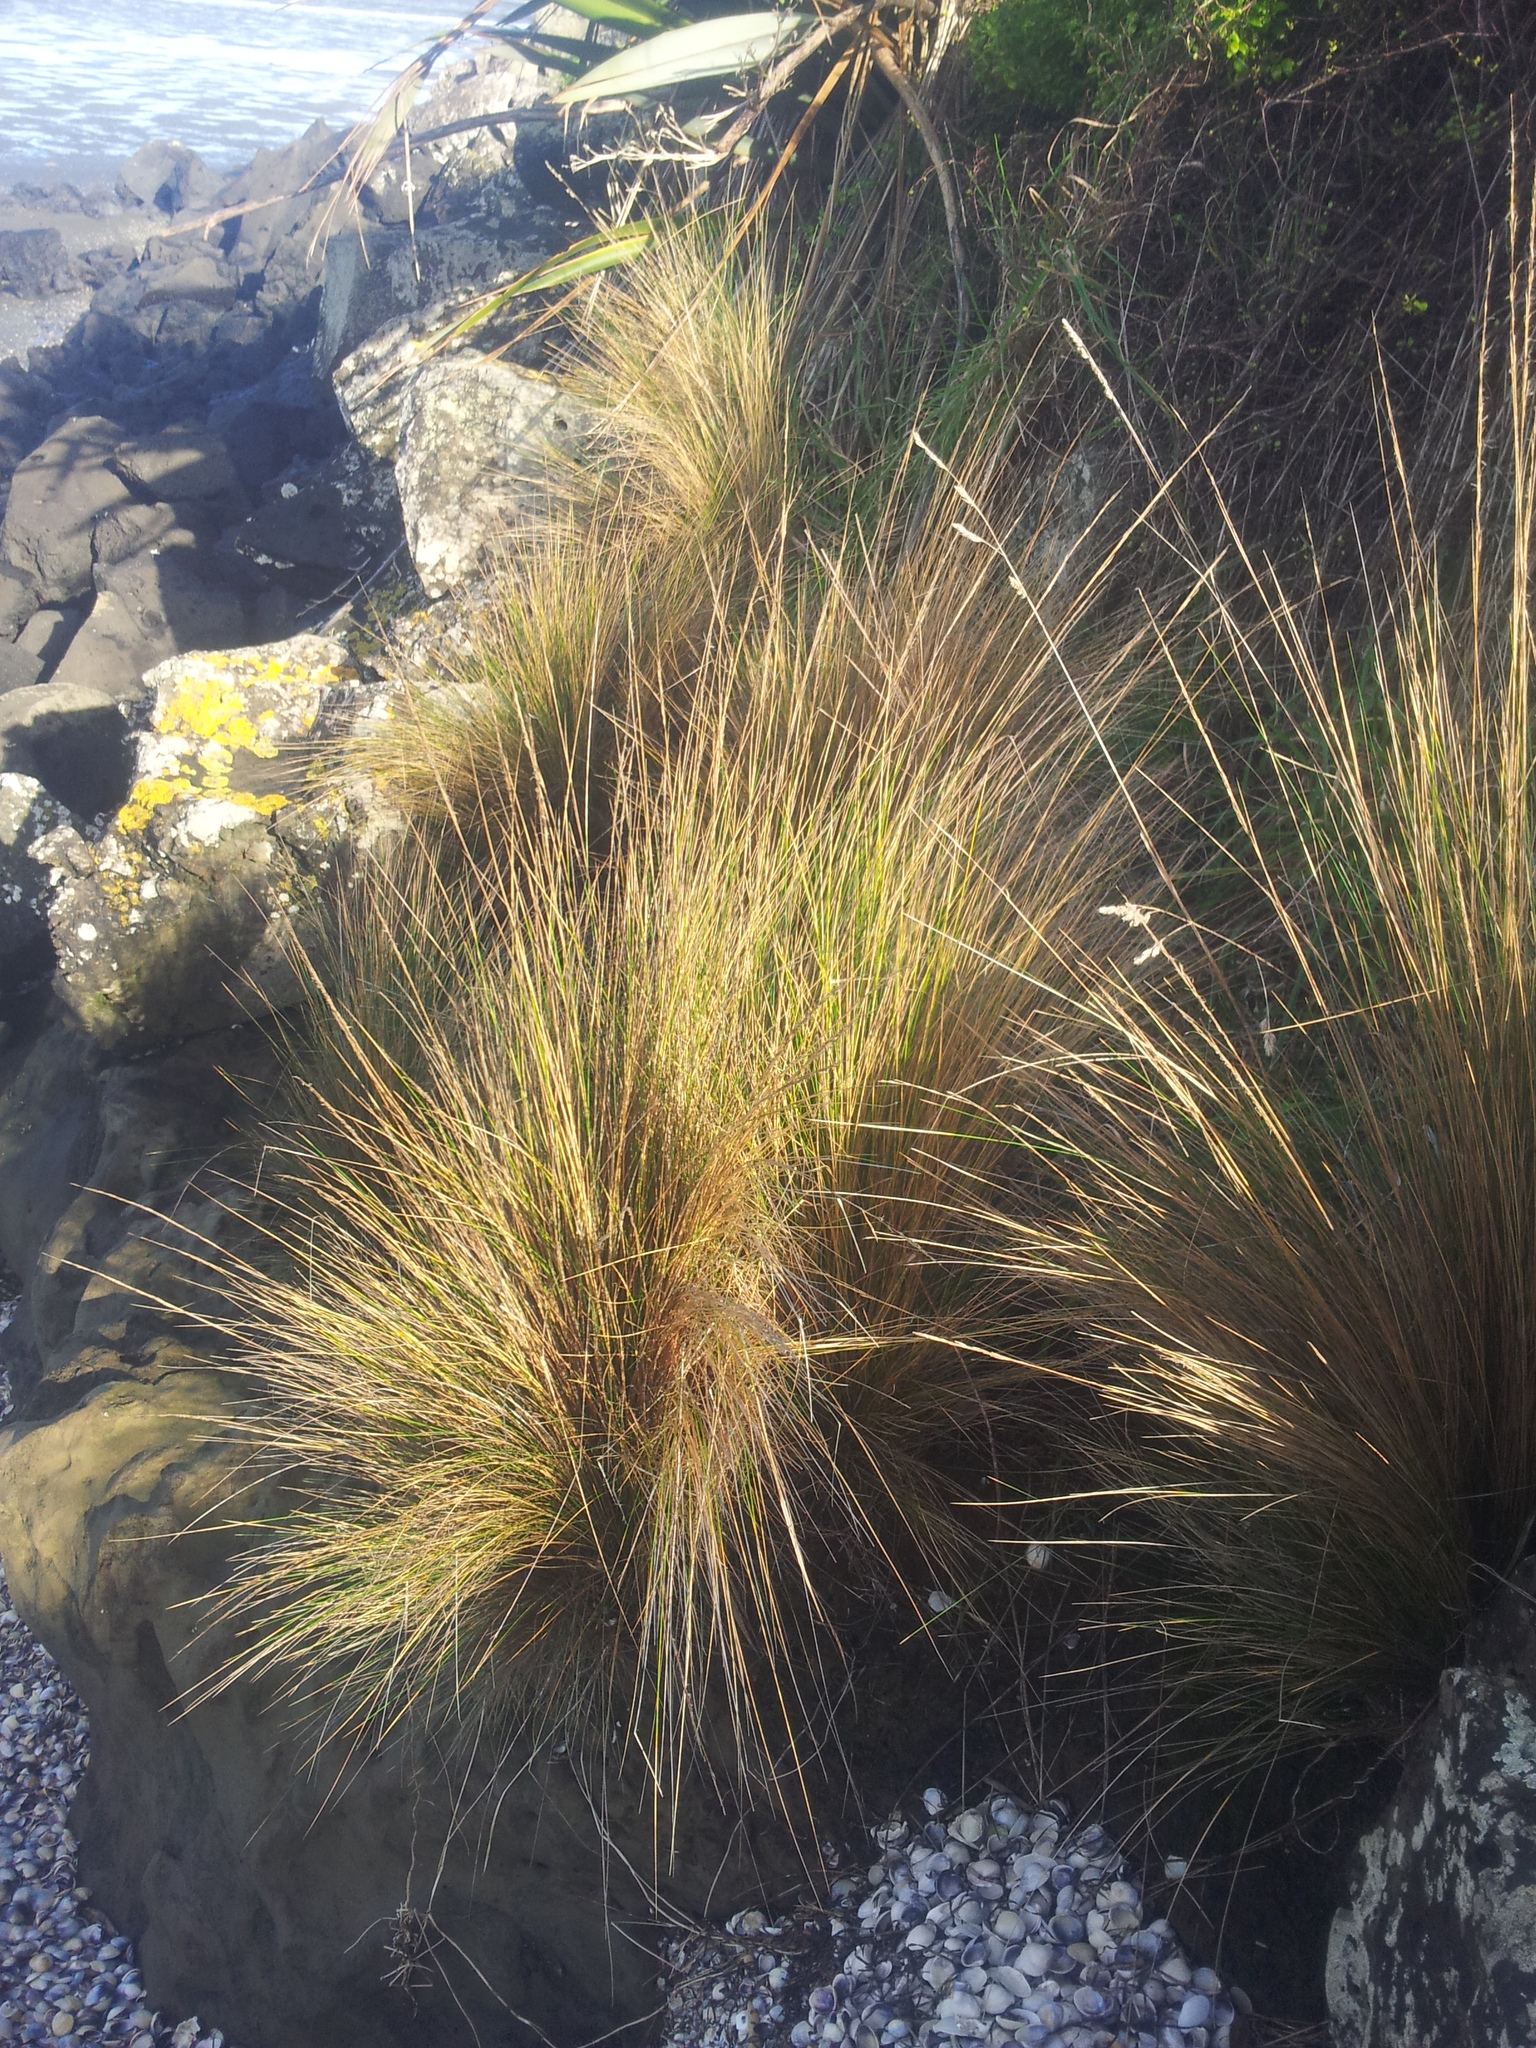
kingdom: Plantae
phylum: Tracheophyta
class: Liliopsida
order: Poales
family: Poaceae
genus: Austrostipa
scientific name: Austrostipa stipoides
